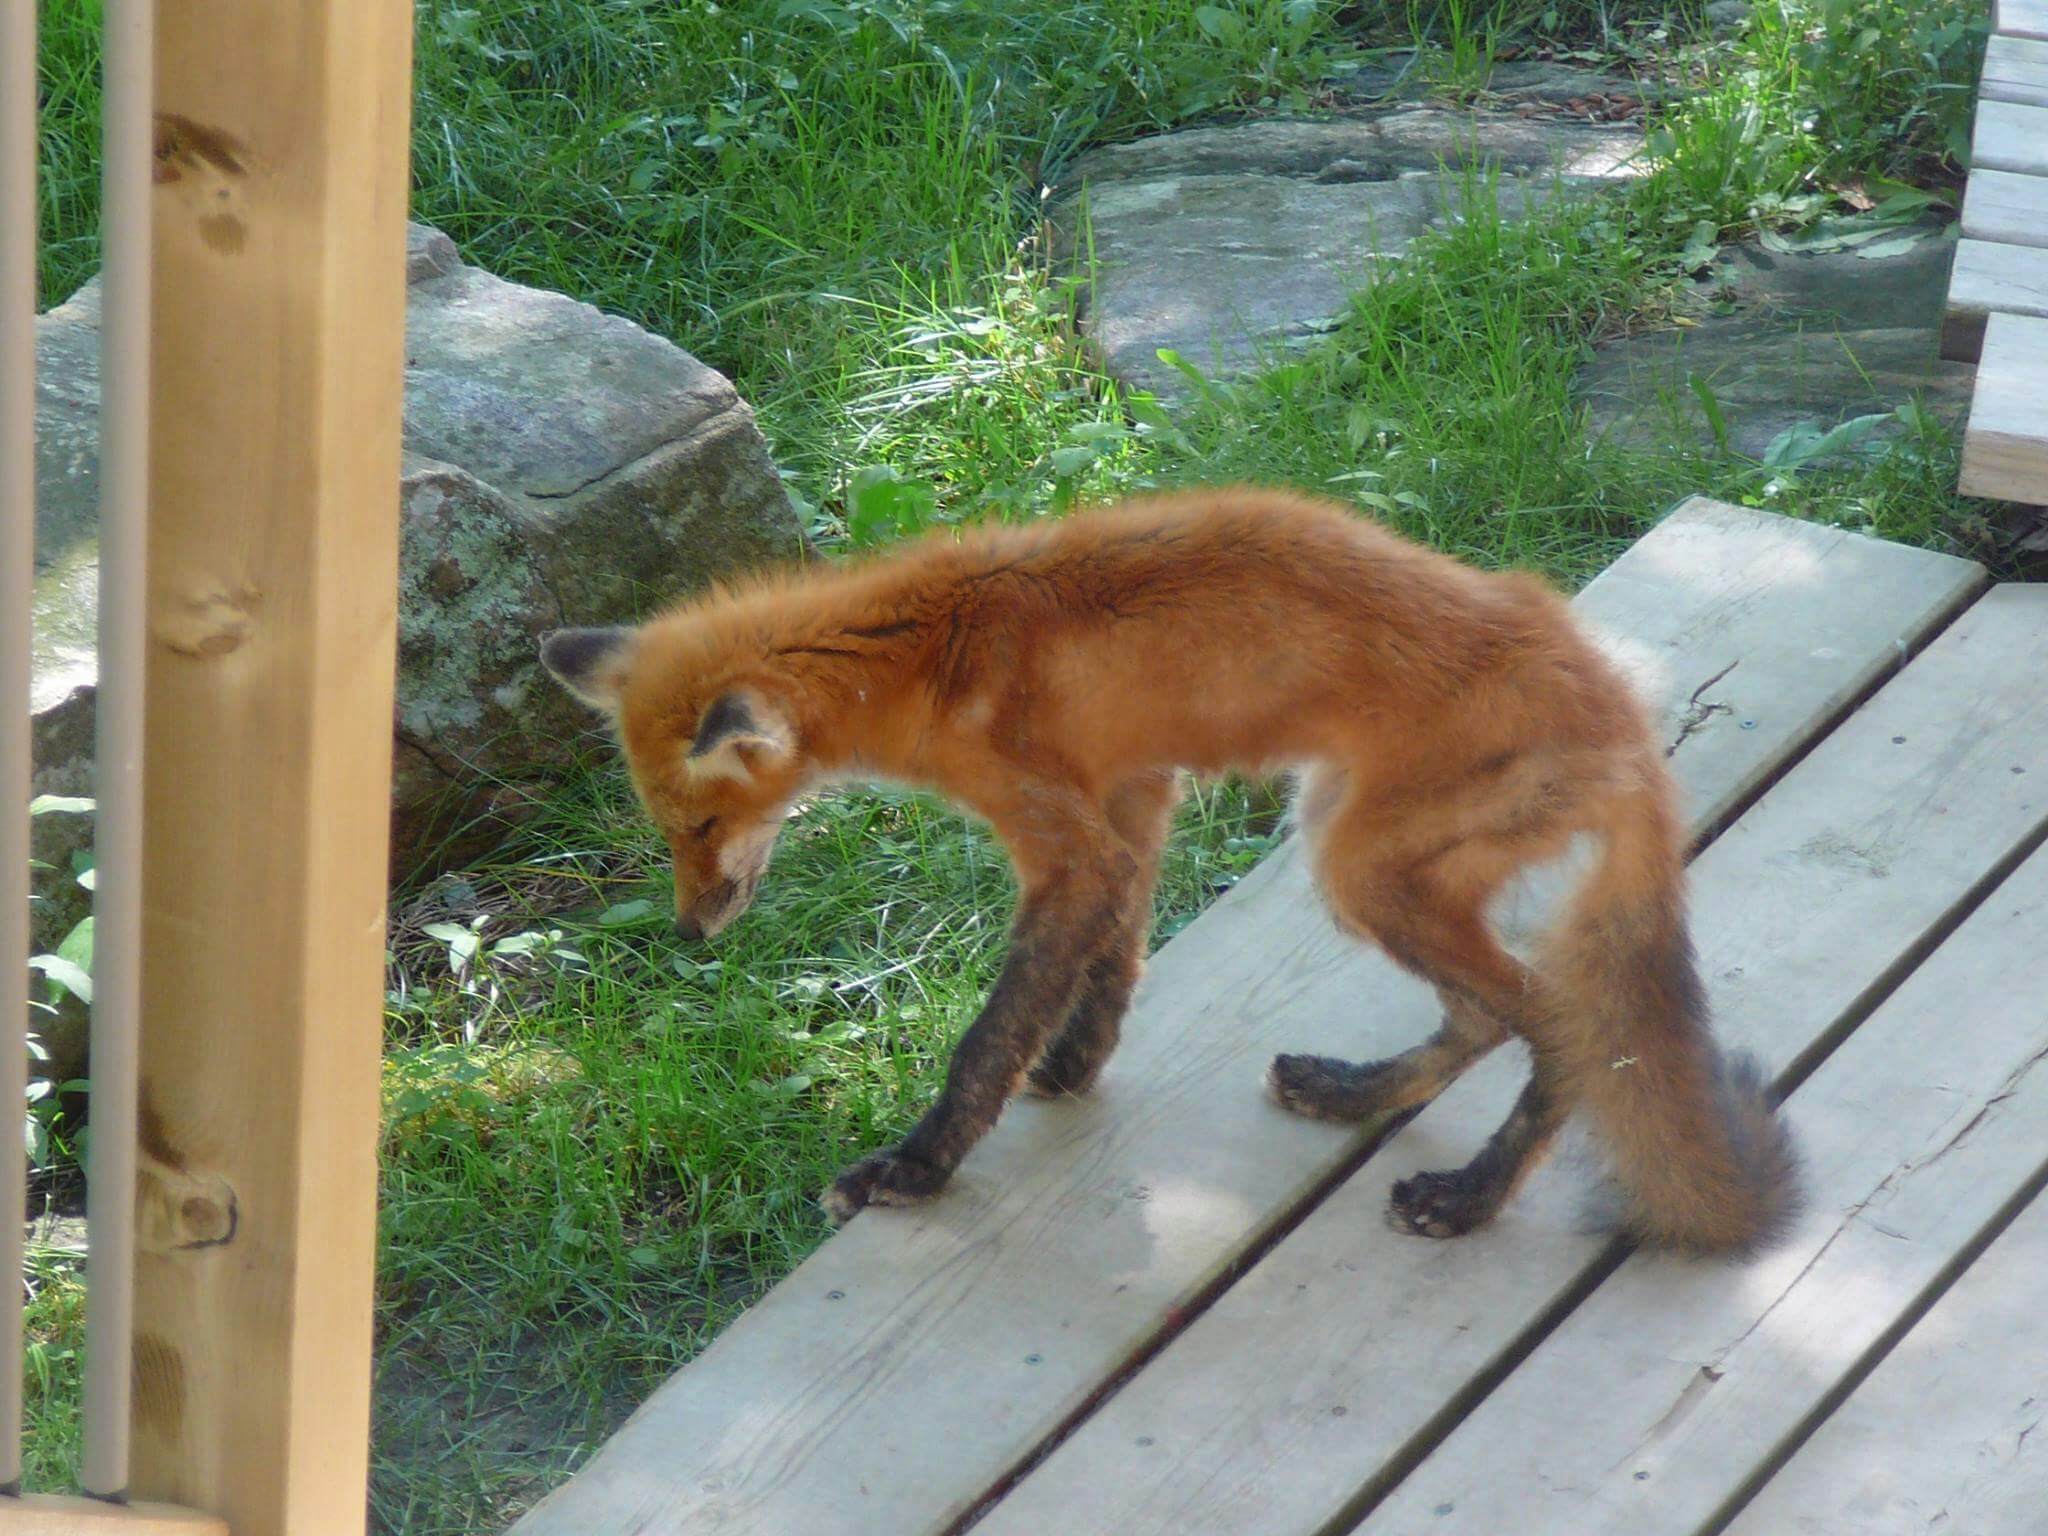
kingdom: Animalia
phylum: Chordata
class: Mammalia
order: Carnivora
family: Canidae
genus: Vulpes
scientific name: Vulpes vulpes
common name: Red fox
